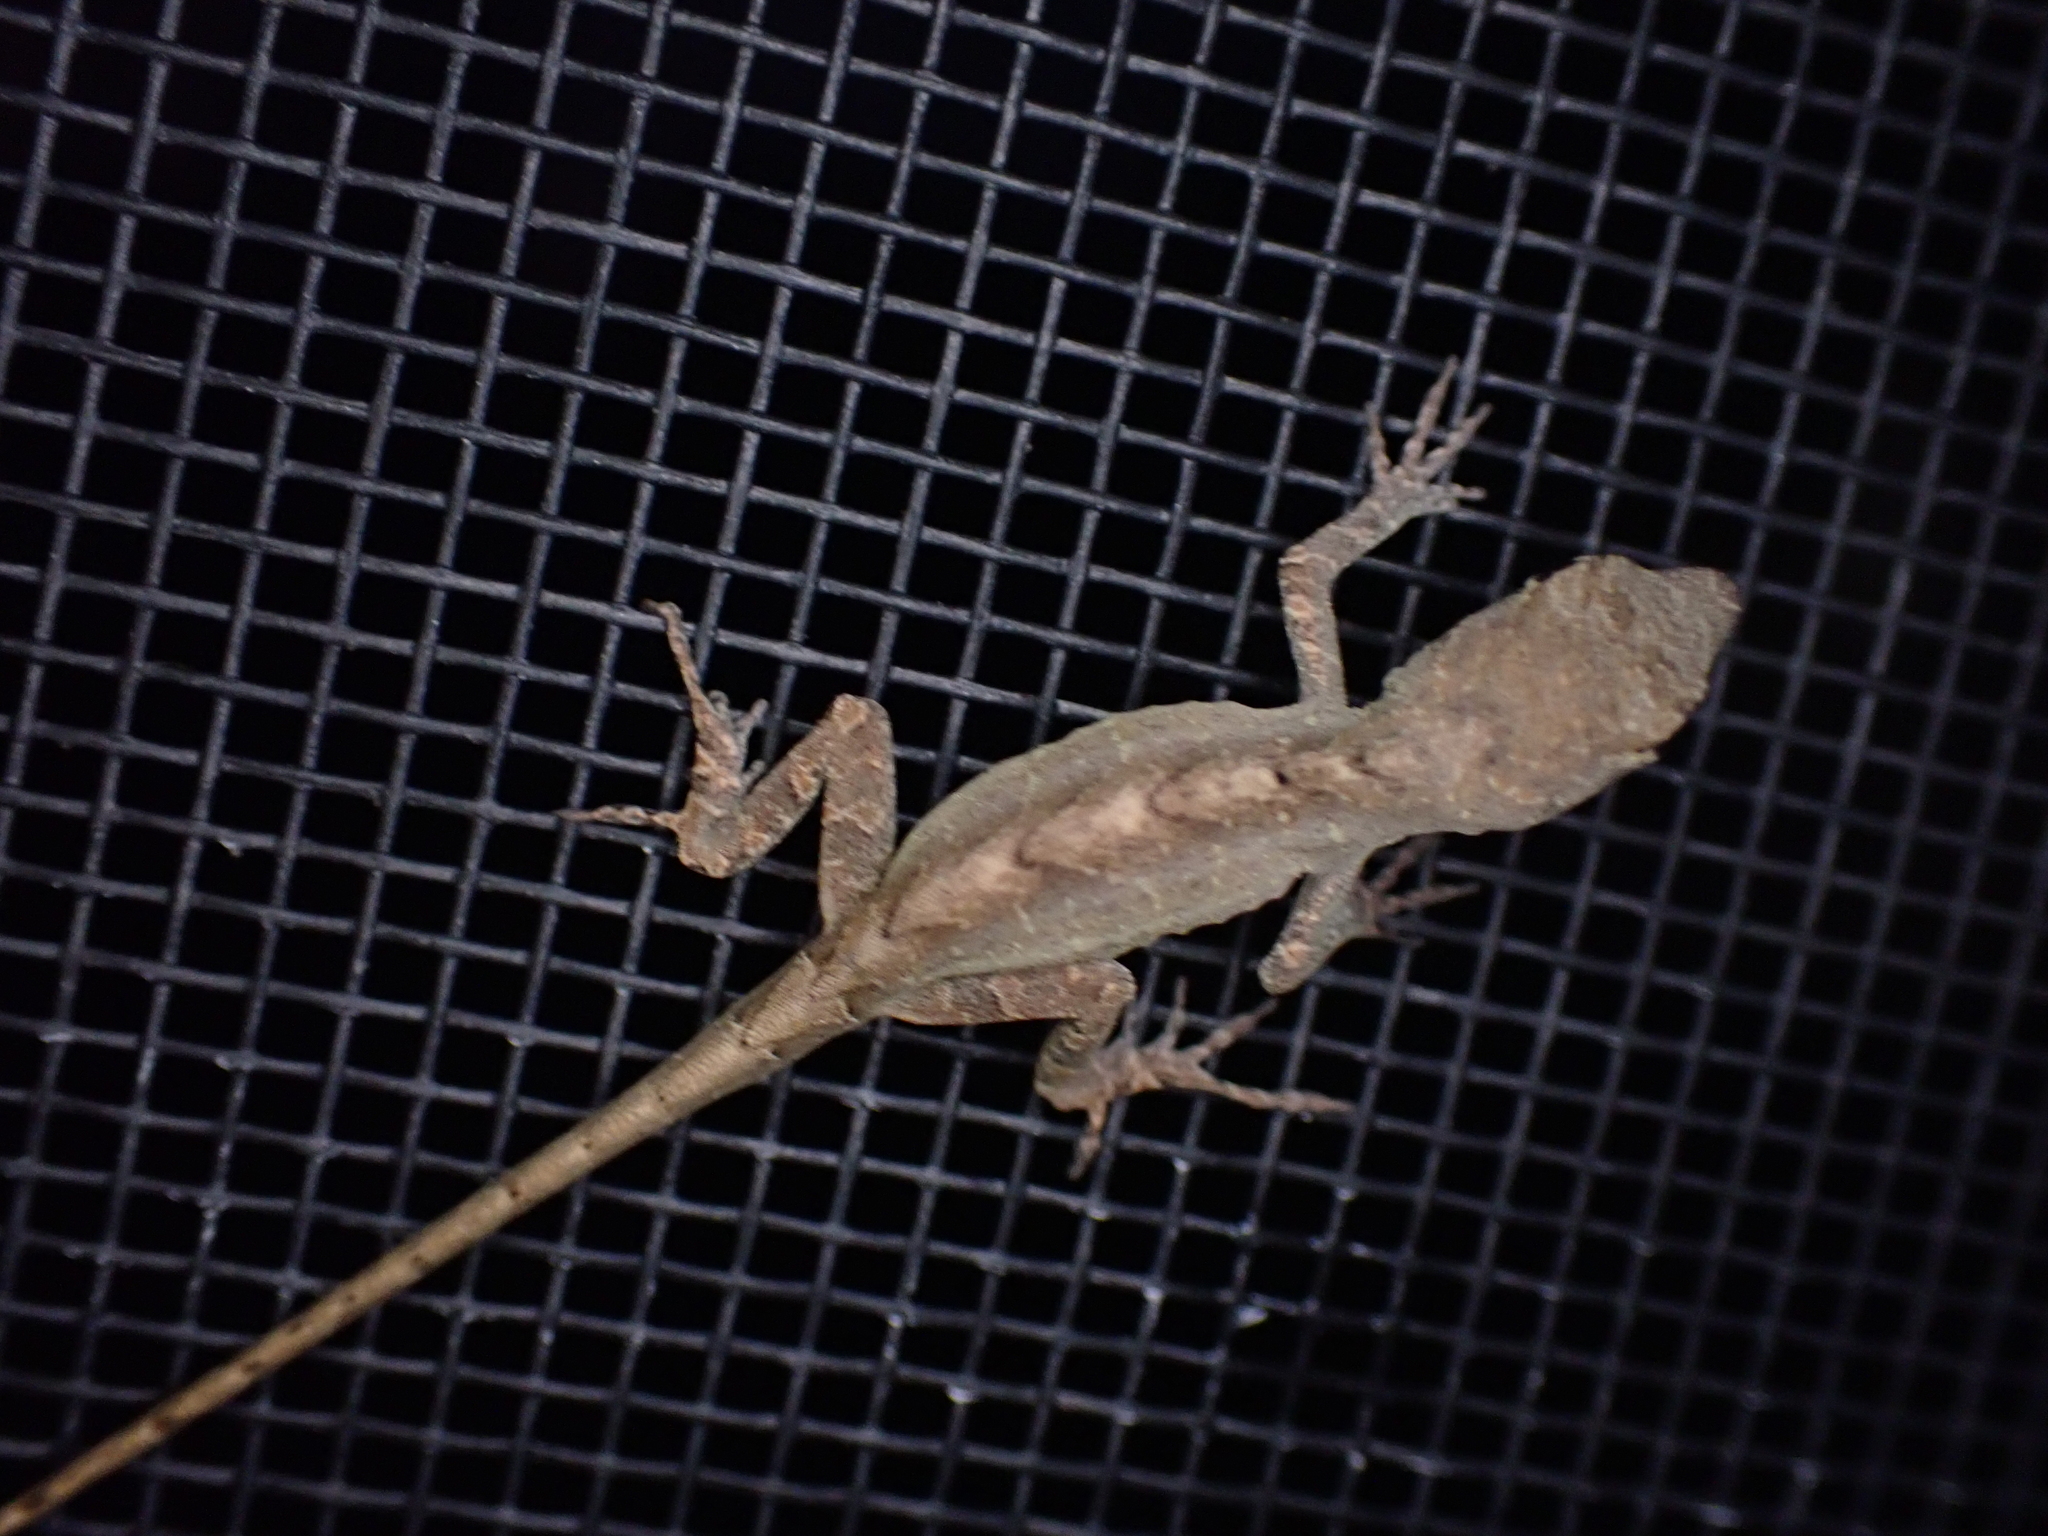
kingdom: Animalia
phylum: Chordata
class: Squamata
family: Dactyloidae
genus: Anolis
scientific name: Anolis sagrei
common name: Brown anole
